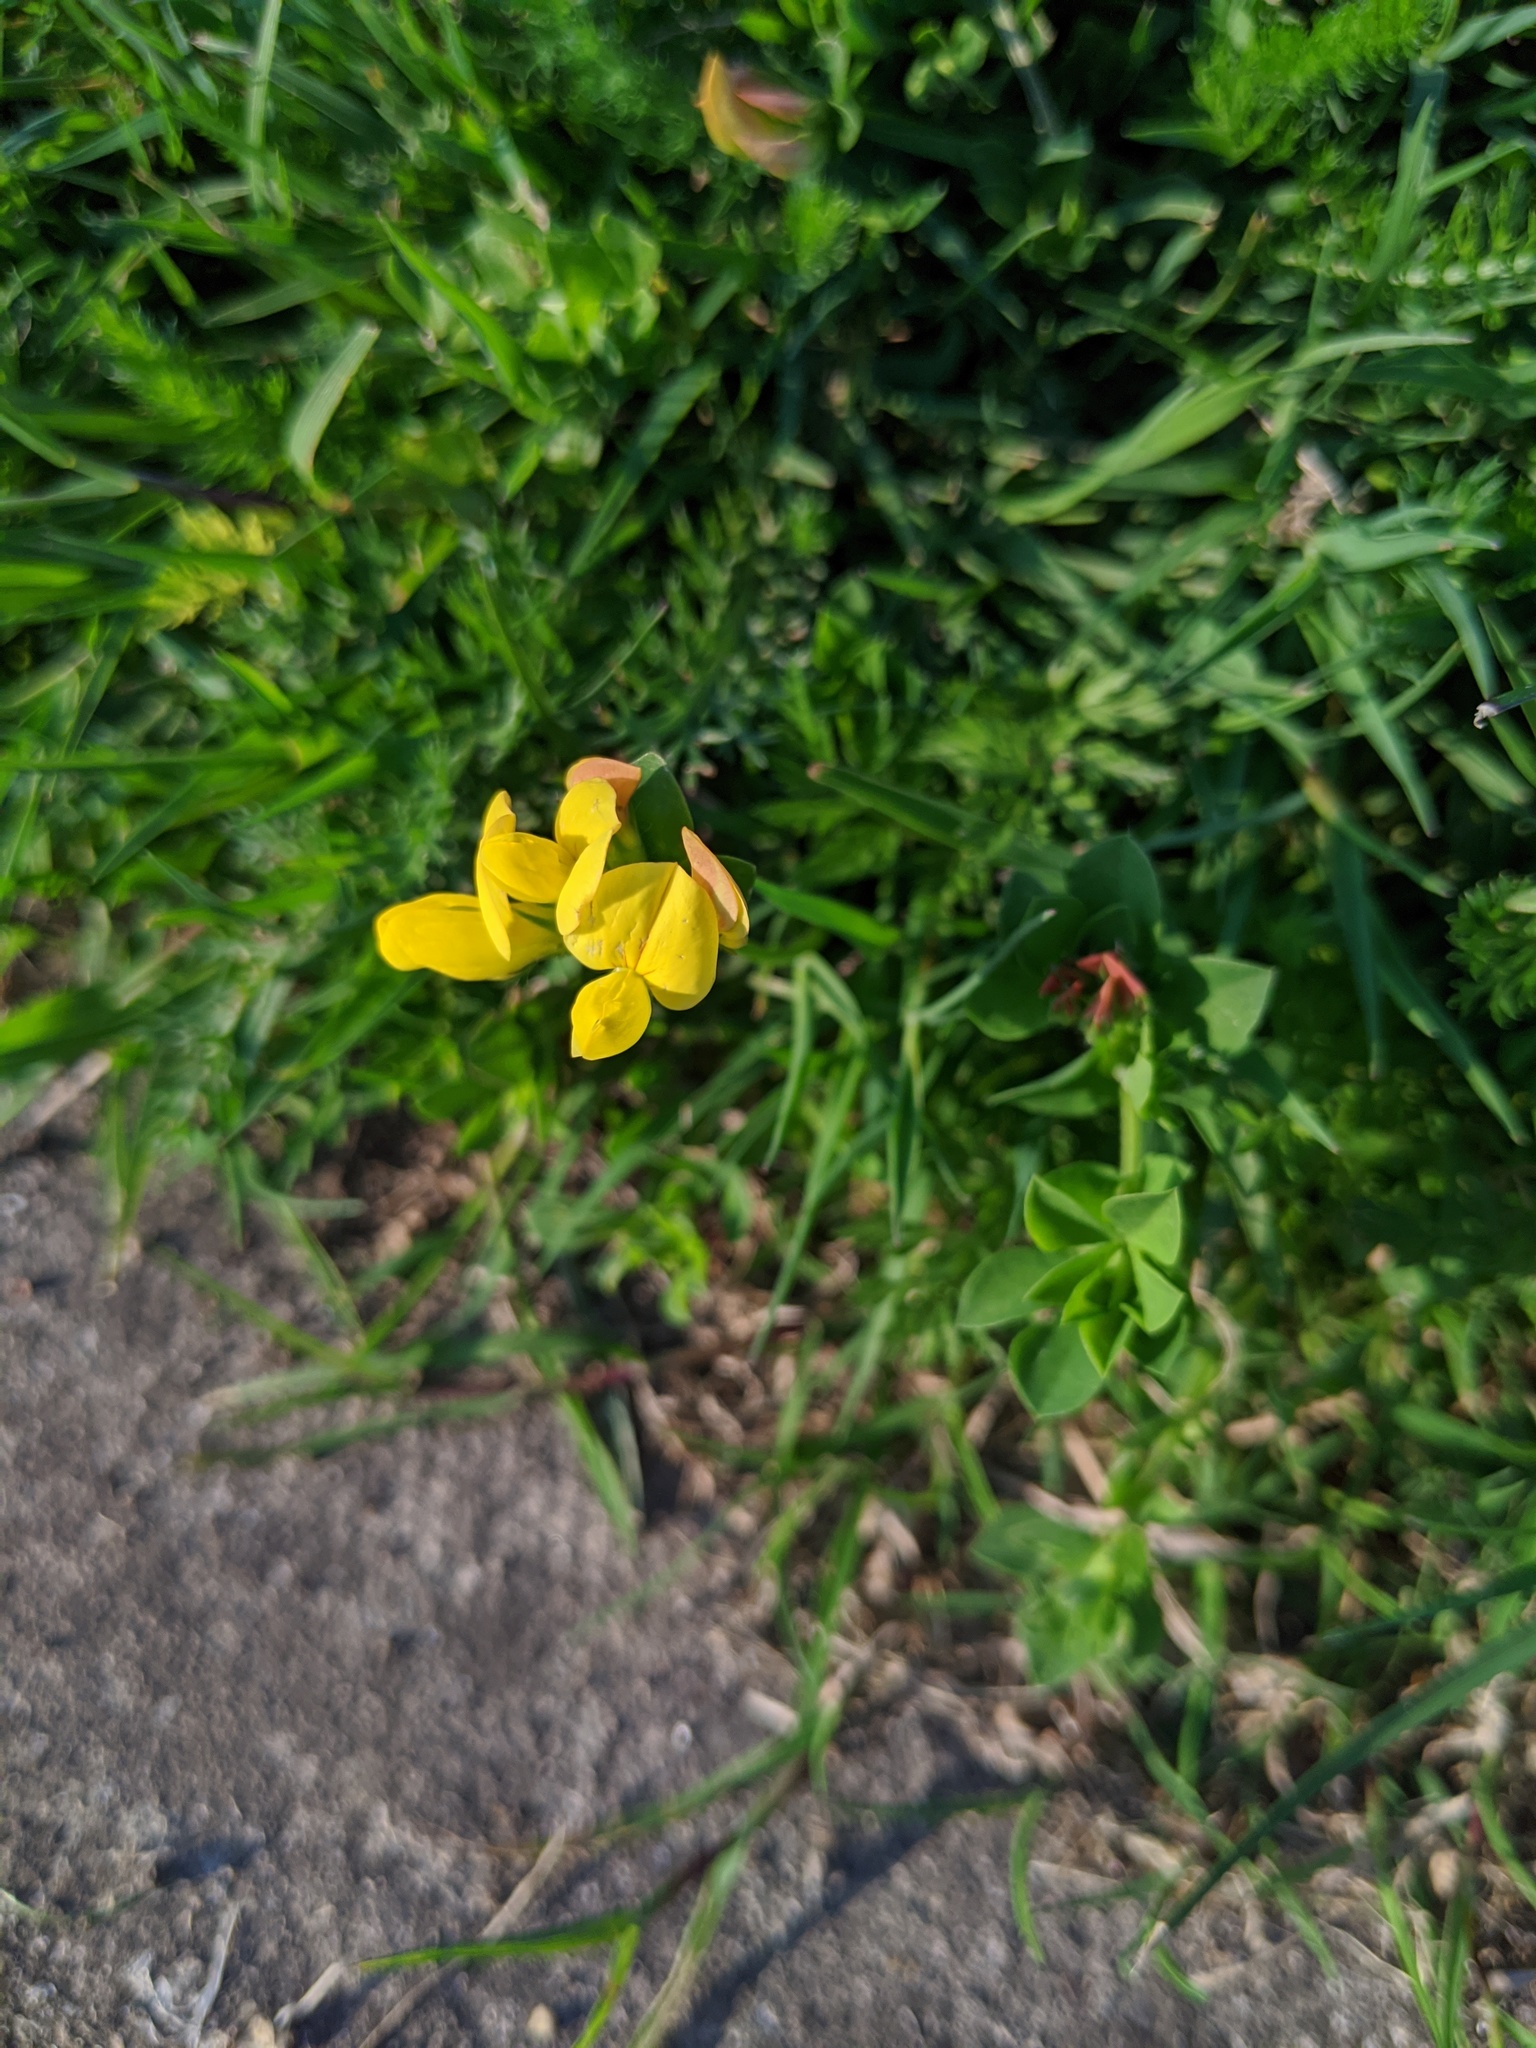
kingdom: Plantae
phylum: Tracheophyta
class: Magnoliopsida
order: Fabales
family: Fabaceae
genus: Lotus
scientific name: Lotus corniculatus
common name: Common bird's-foot-trefoil
